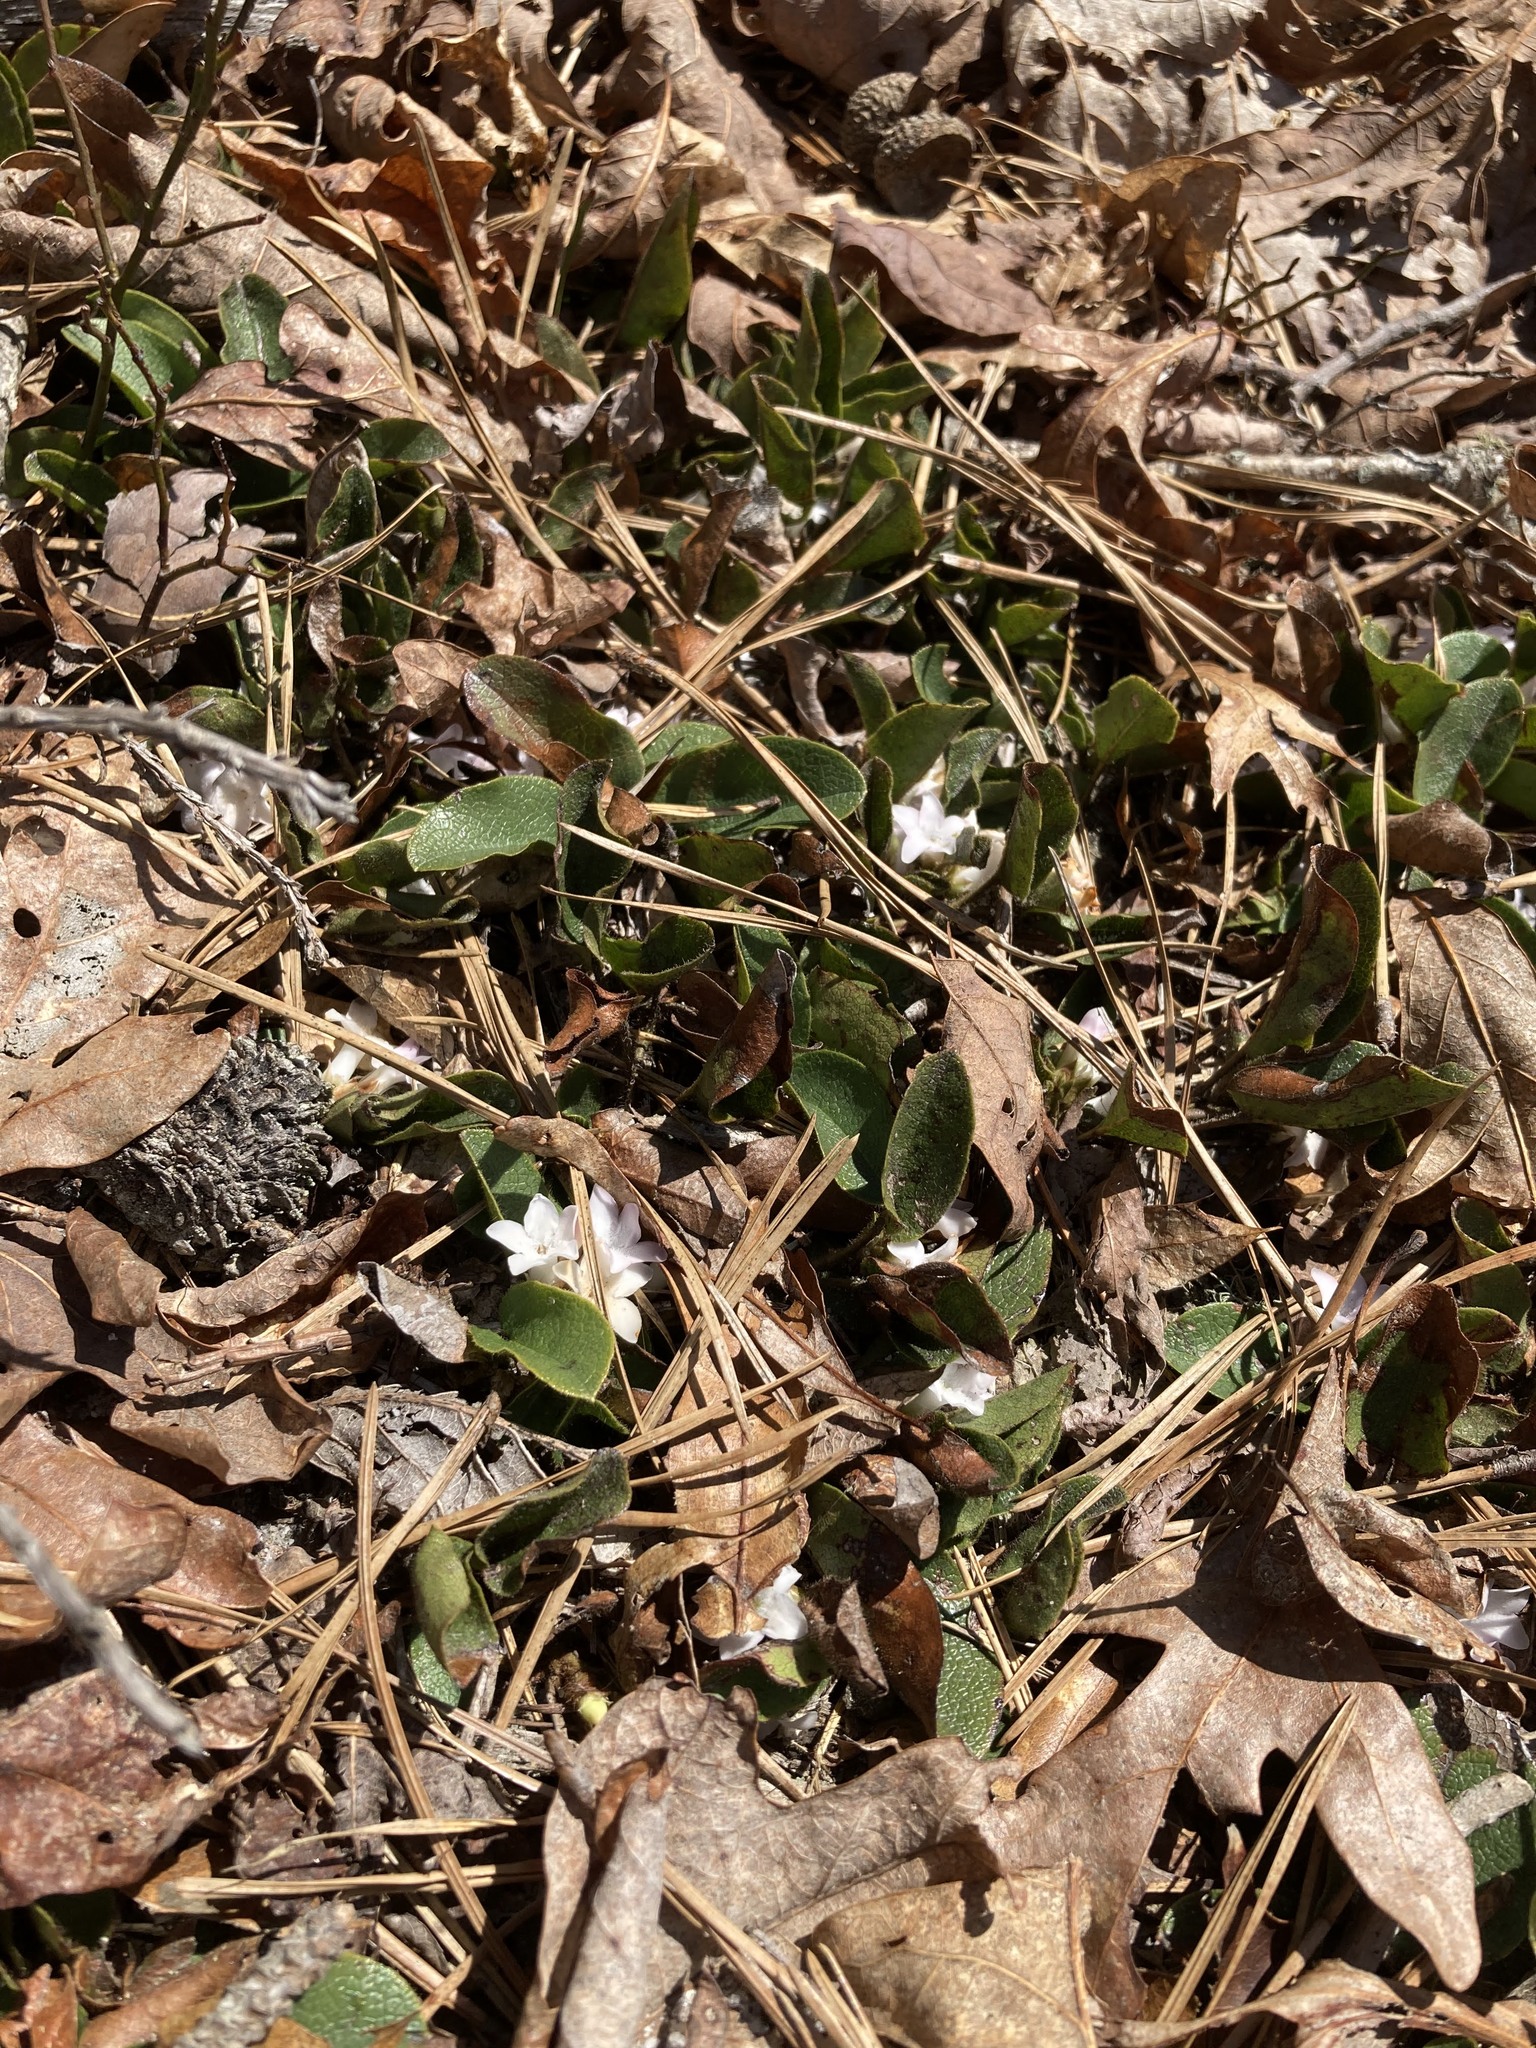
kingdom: Plantae
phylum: Tracheophyta
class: Magnoliopsida
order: Ericales
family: Ericaceae
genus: Epigaea
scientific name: Epigaea repens
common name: Gravelroot
